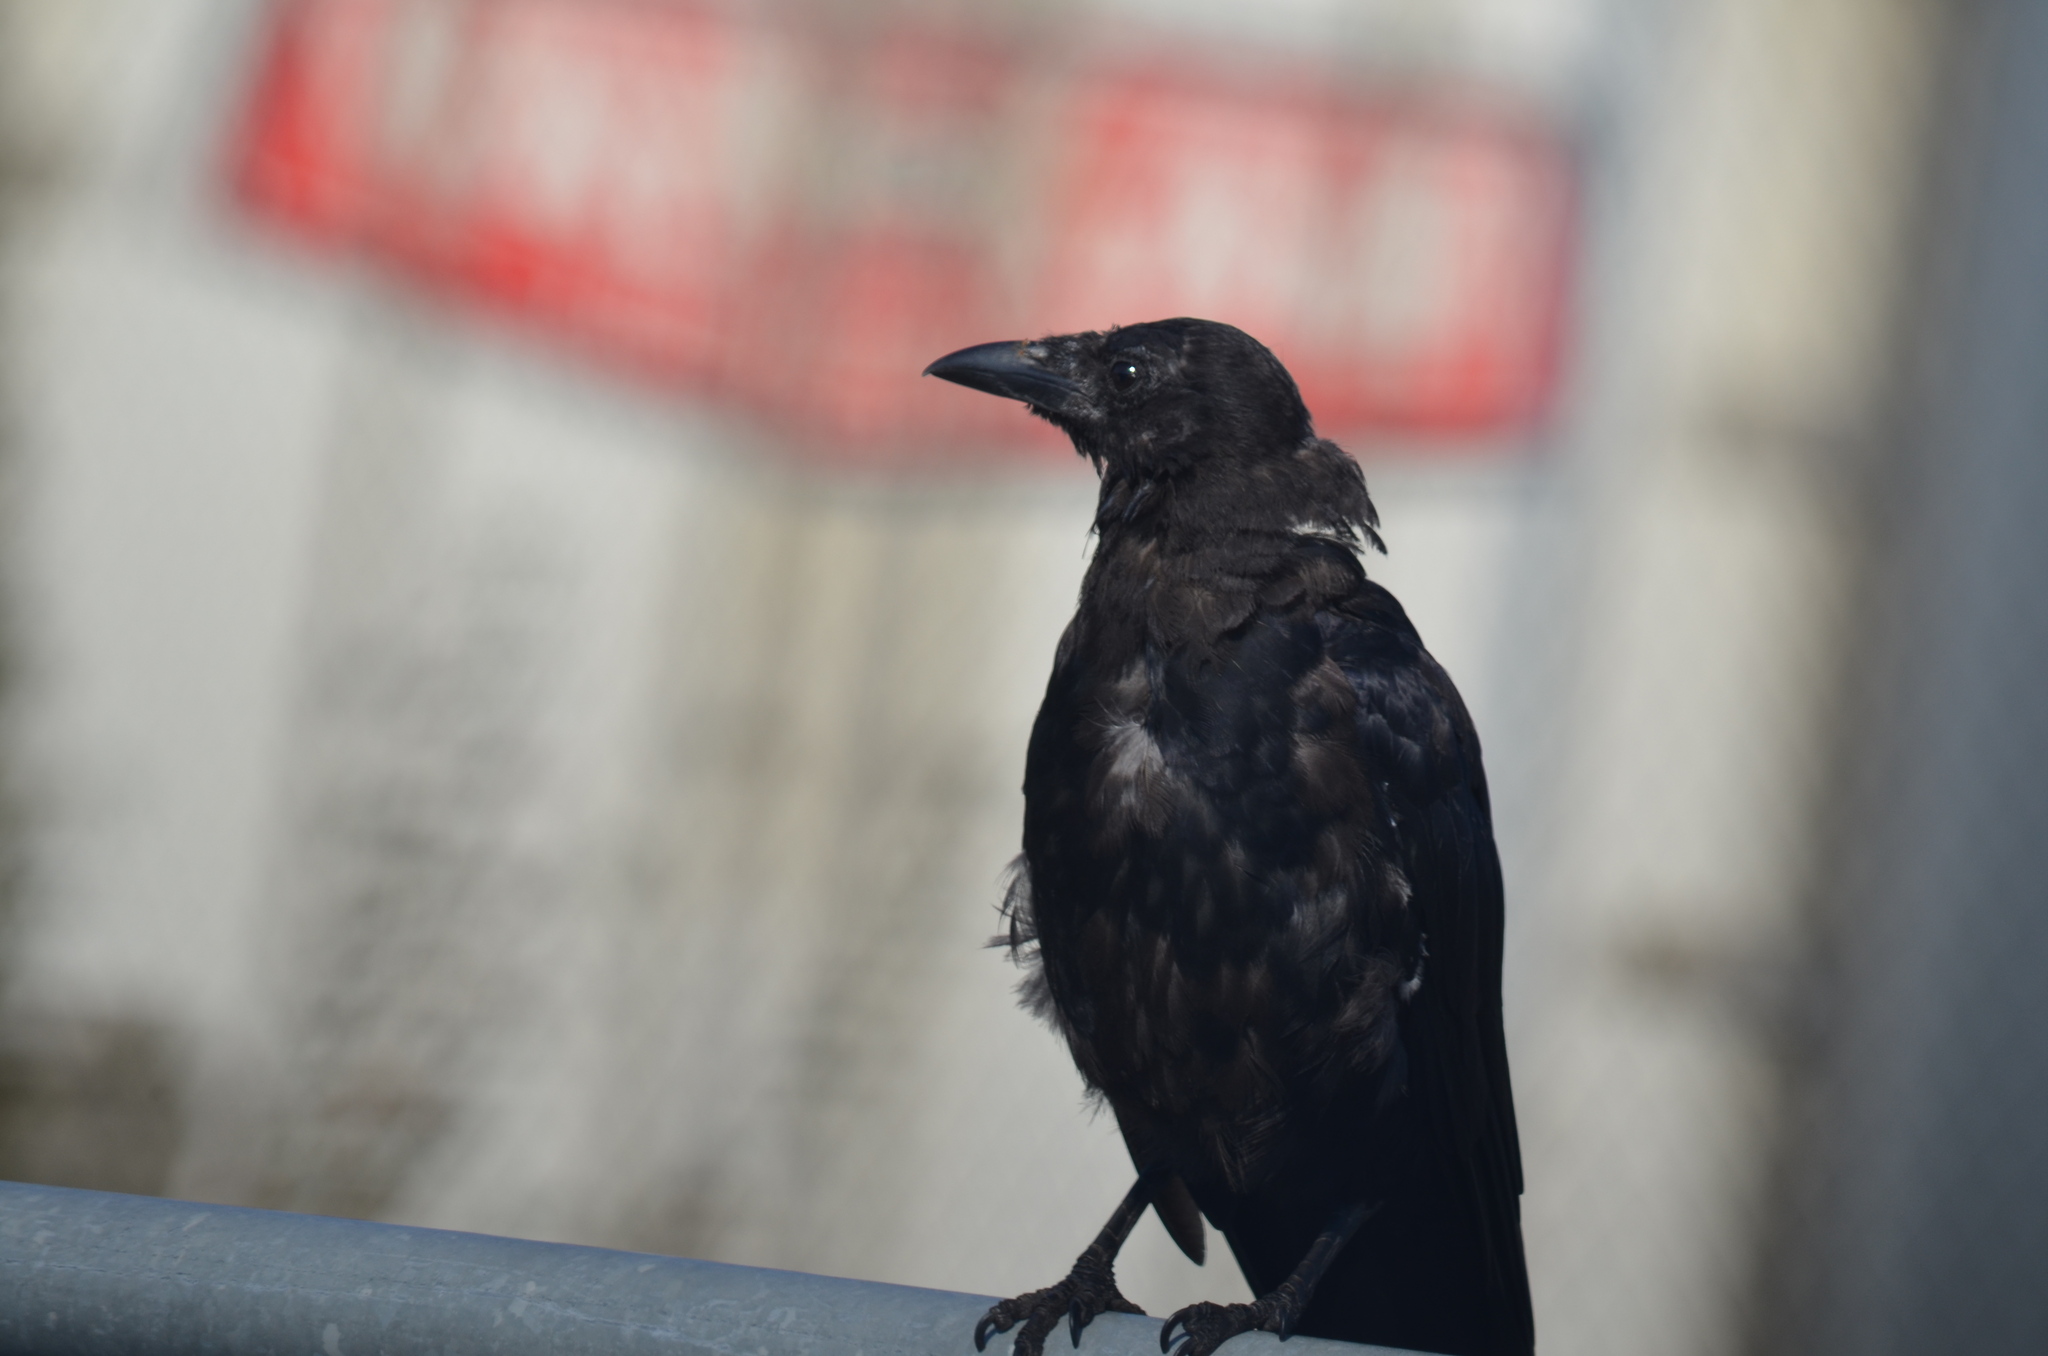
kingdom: Animalia
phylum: Chordata
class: Aves
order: Passeriformes
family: Corvidae
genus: Corvus
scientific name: Corvus brachyrhynchos
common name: American crow
